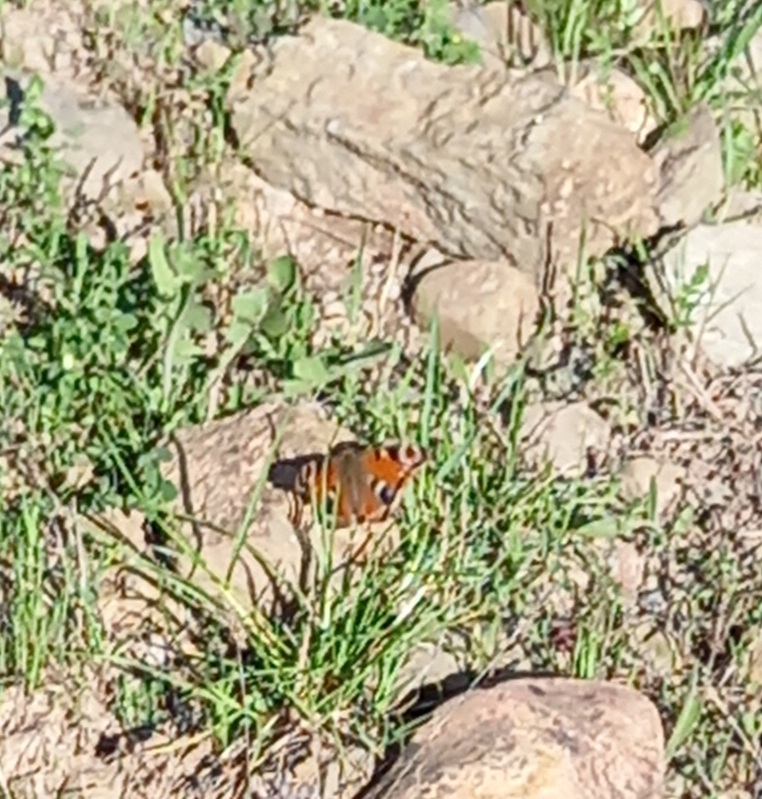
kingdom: Animalia
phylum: Arthropoda
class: Insecta
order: Lepidoptera
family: Nymphalidae
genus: Aglais
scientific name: Aglais io
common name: Peacock
